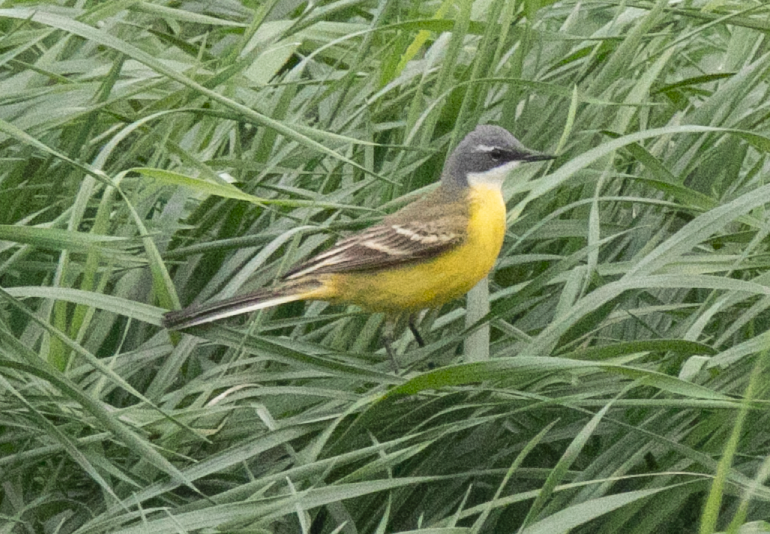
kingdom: Animalia
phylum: Chordata
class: Aves
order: Passeriformes
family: Motacillidae
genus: Motacilla
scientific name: Motacilla flava
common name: Western yellow wagtail
